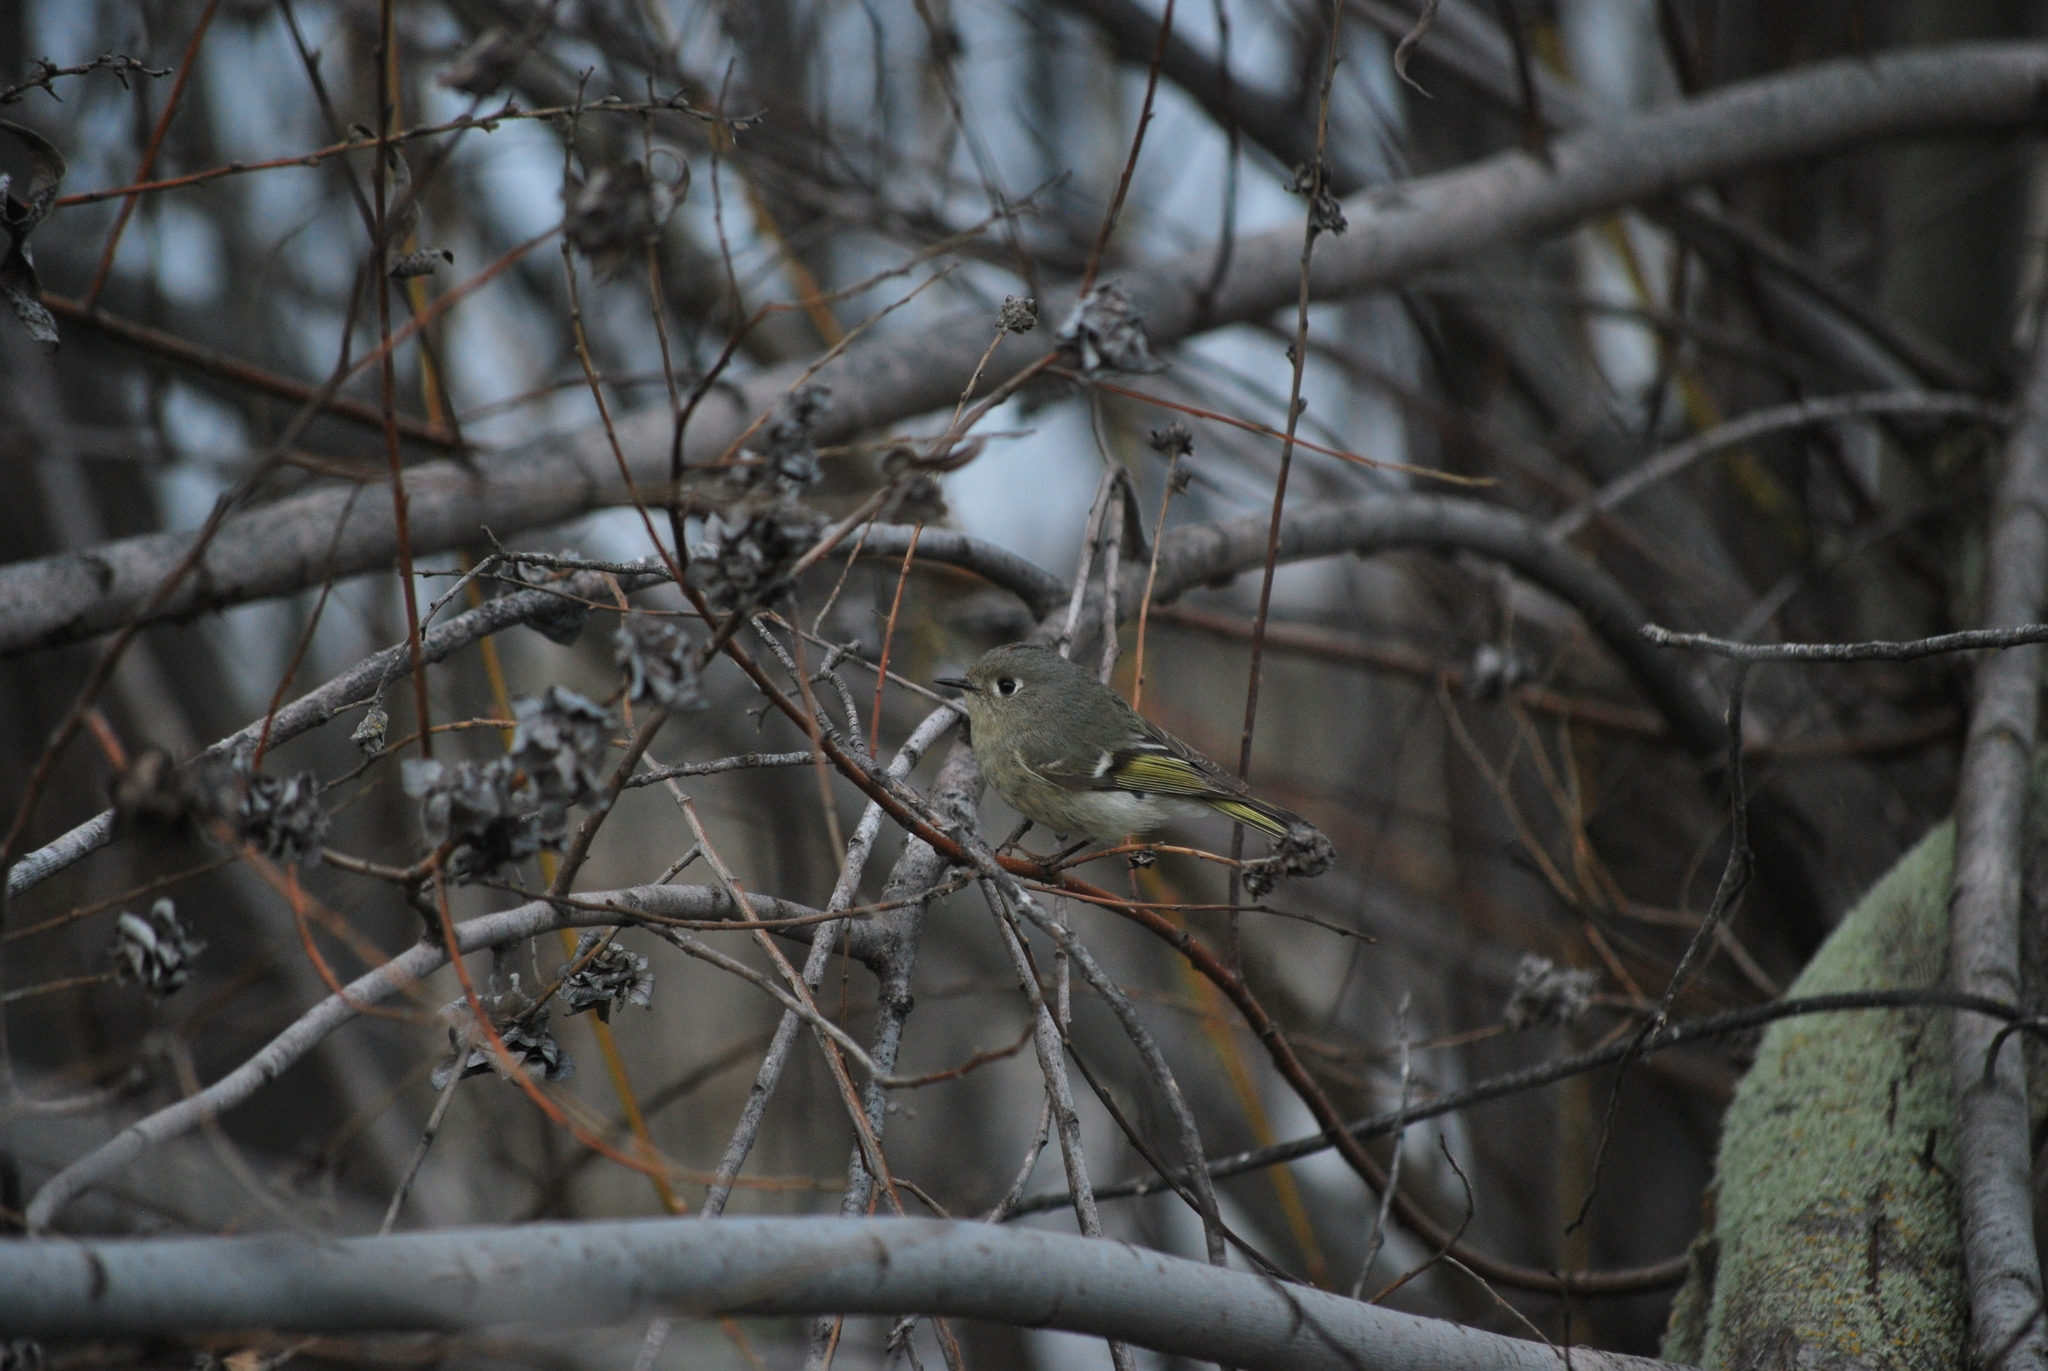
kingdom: Animalia
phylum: Chordata
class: Aves
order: Passeriformes
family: Regulidae
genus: Regulus
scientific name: Regulus calendula
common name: Ruby-crowned kinglet
